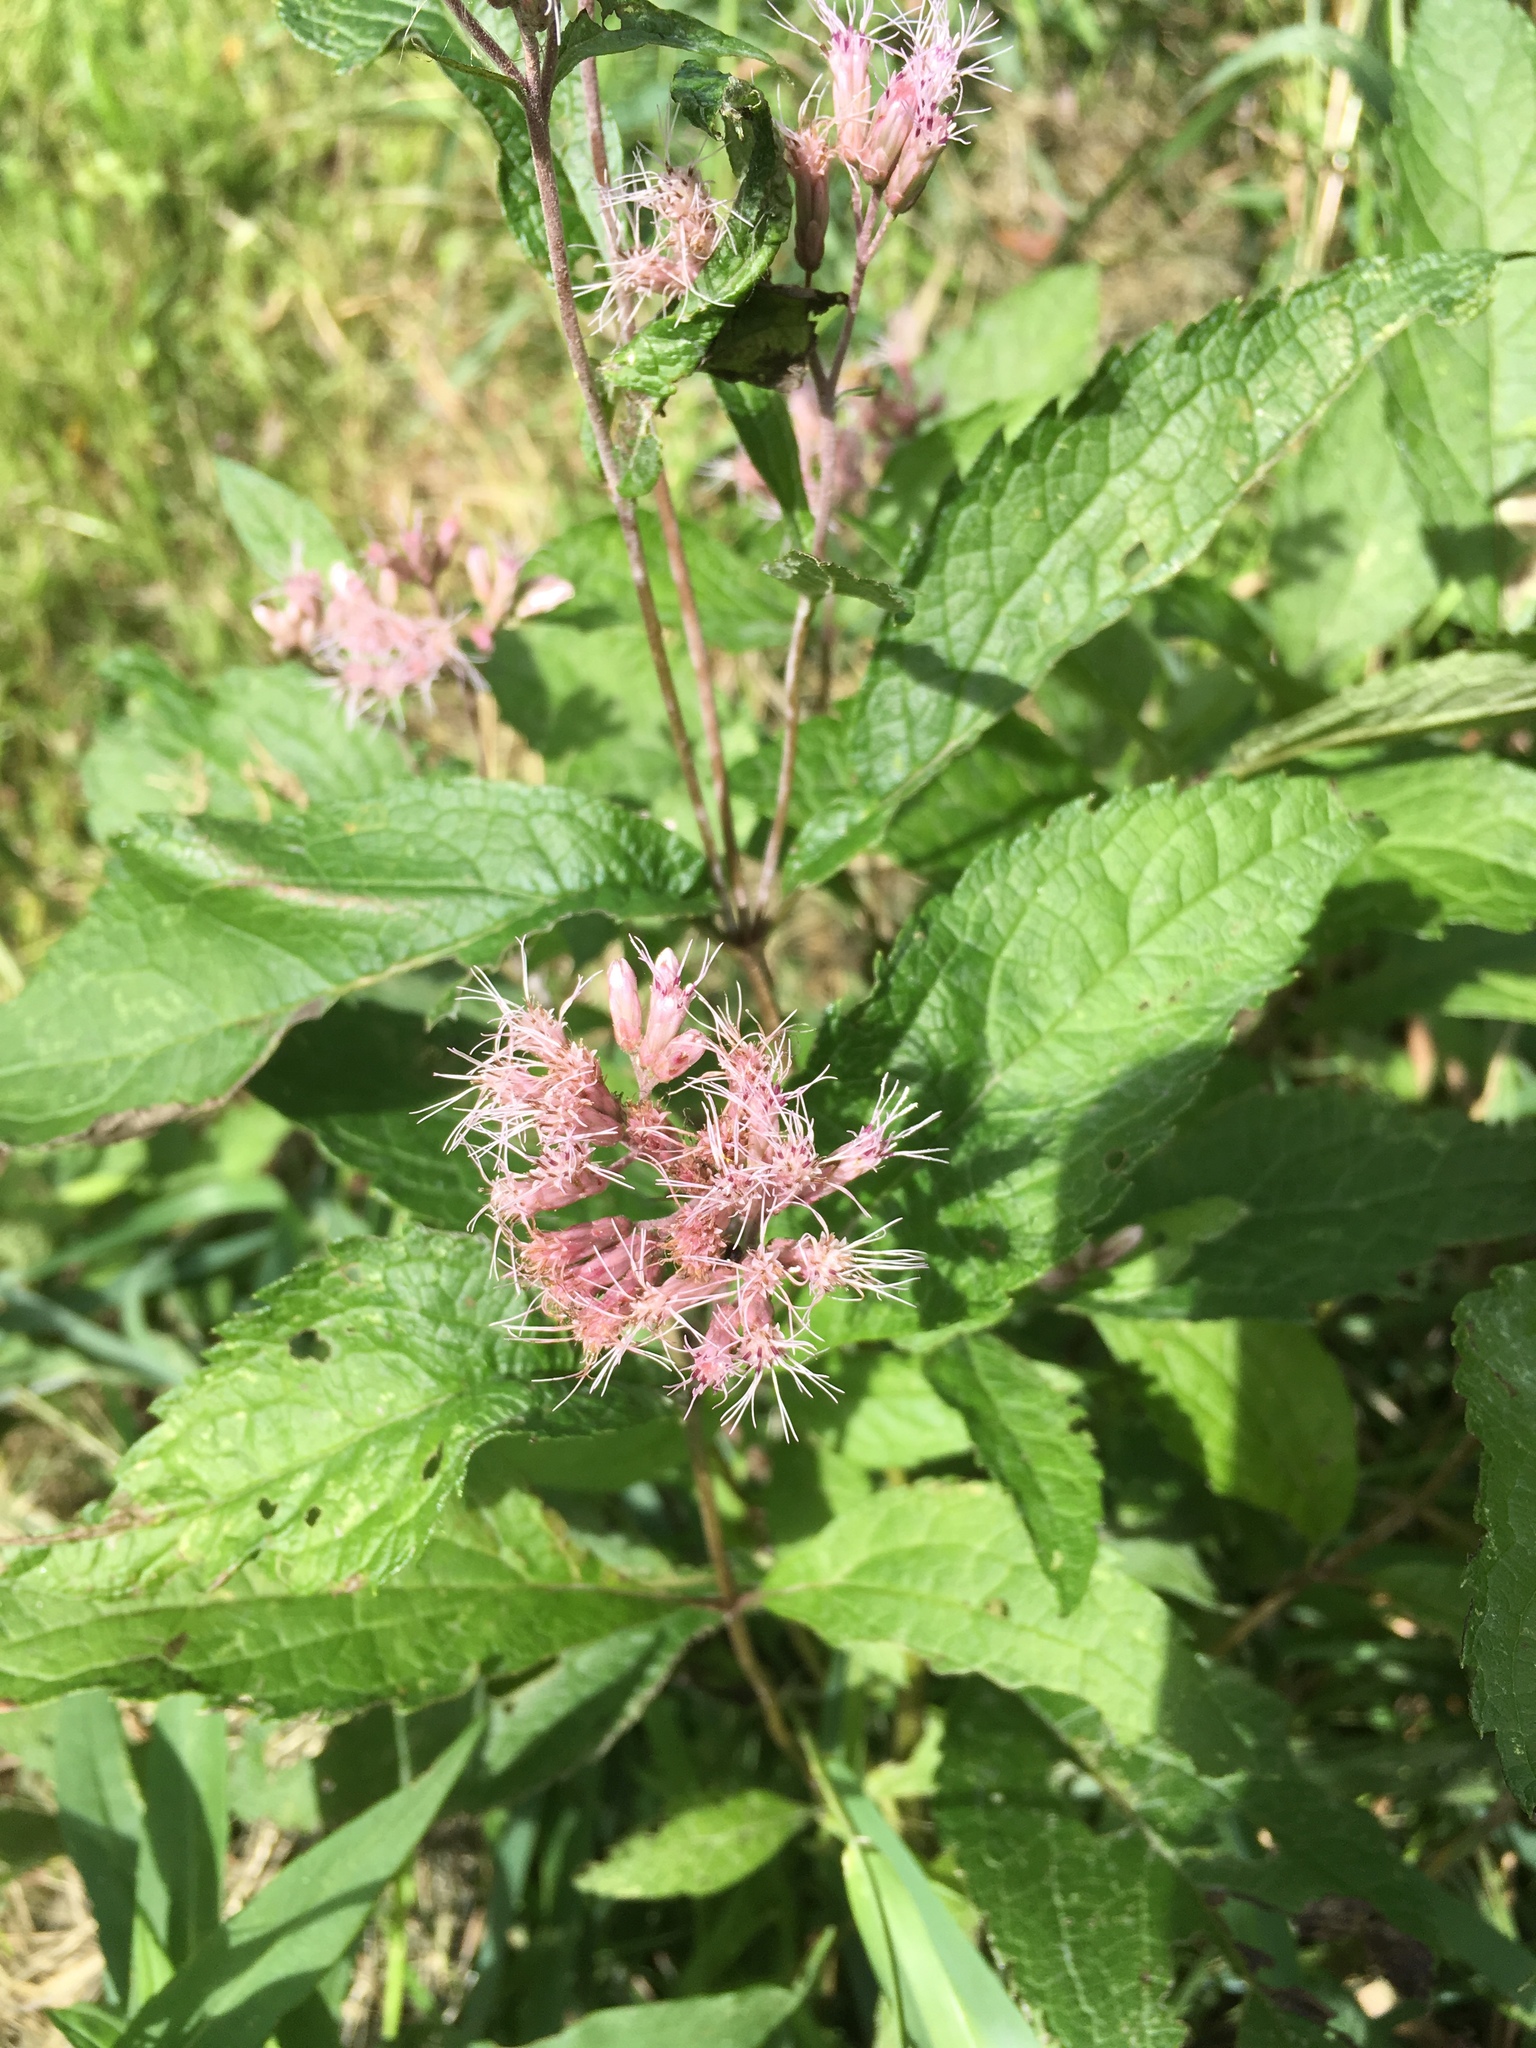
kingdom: Plantae
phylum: Tracheophyta
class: Magnoliopsida
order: Asterales
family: Asteraceae
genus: Eutrochium
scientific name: Eutrochium maculatum
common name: Spotted joe pye weed
